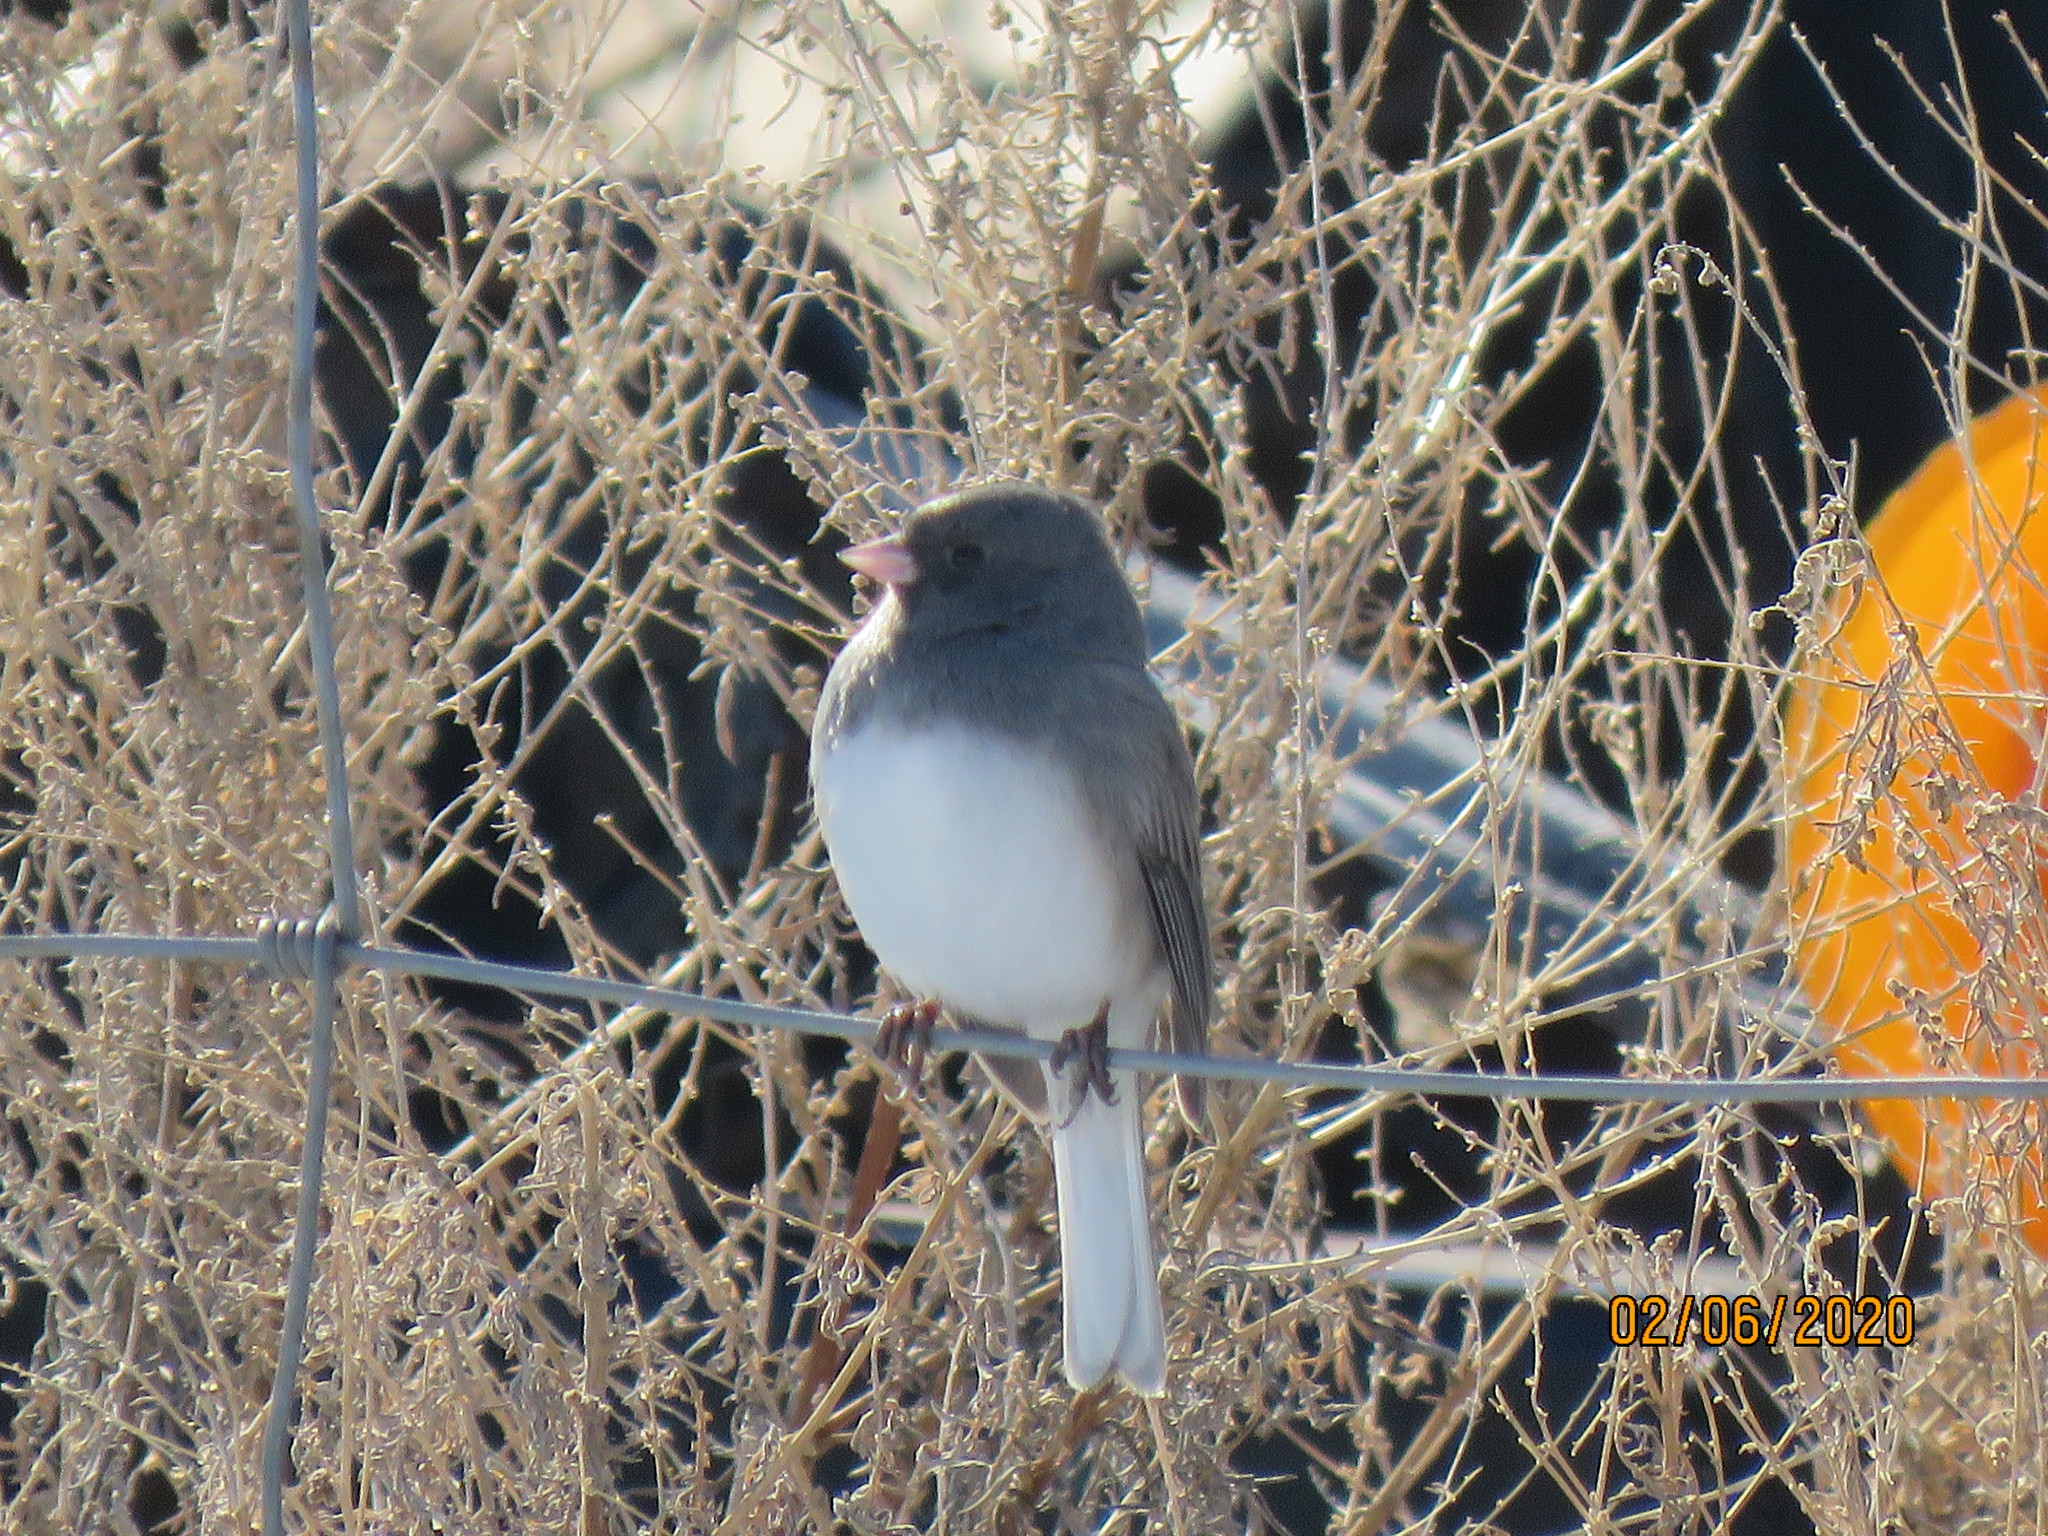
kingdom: Animalia
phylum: Chordata
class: Aves
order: Passeriformes
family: Passerellidae
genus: Junco
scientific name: Junco hyemalis
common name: Dark-eyed junco
